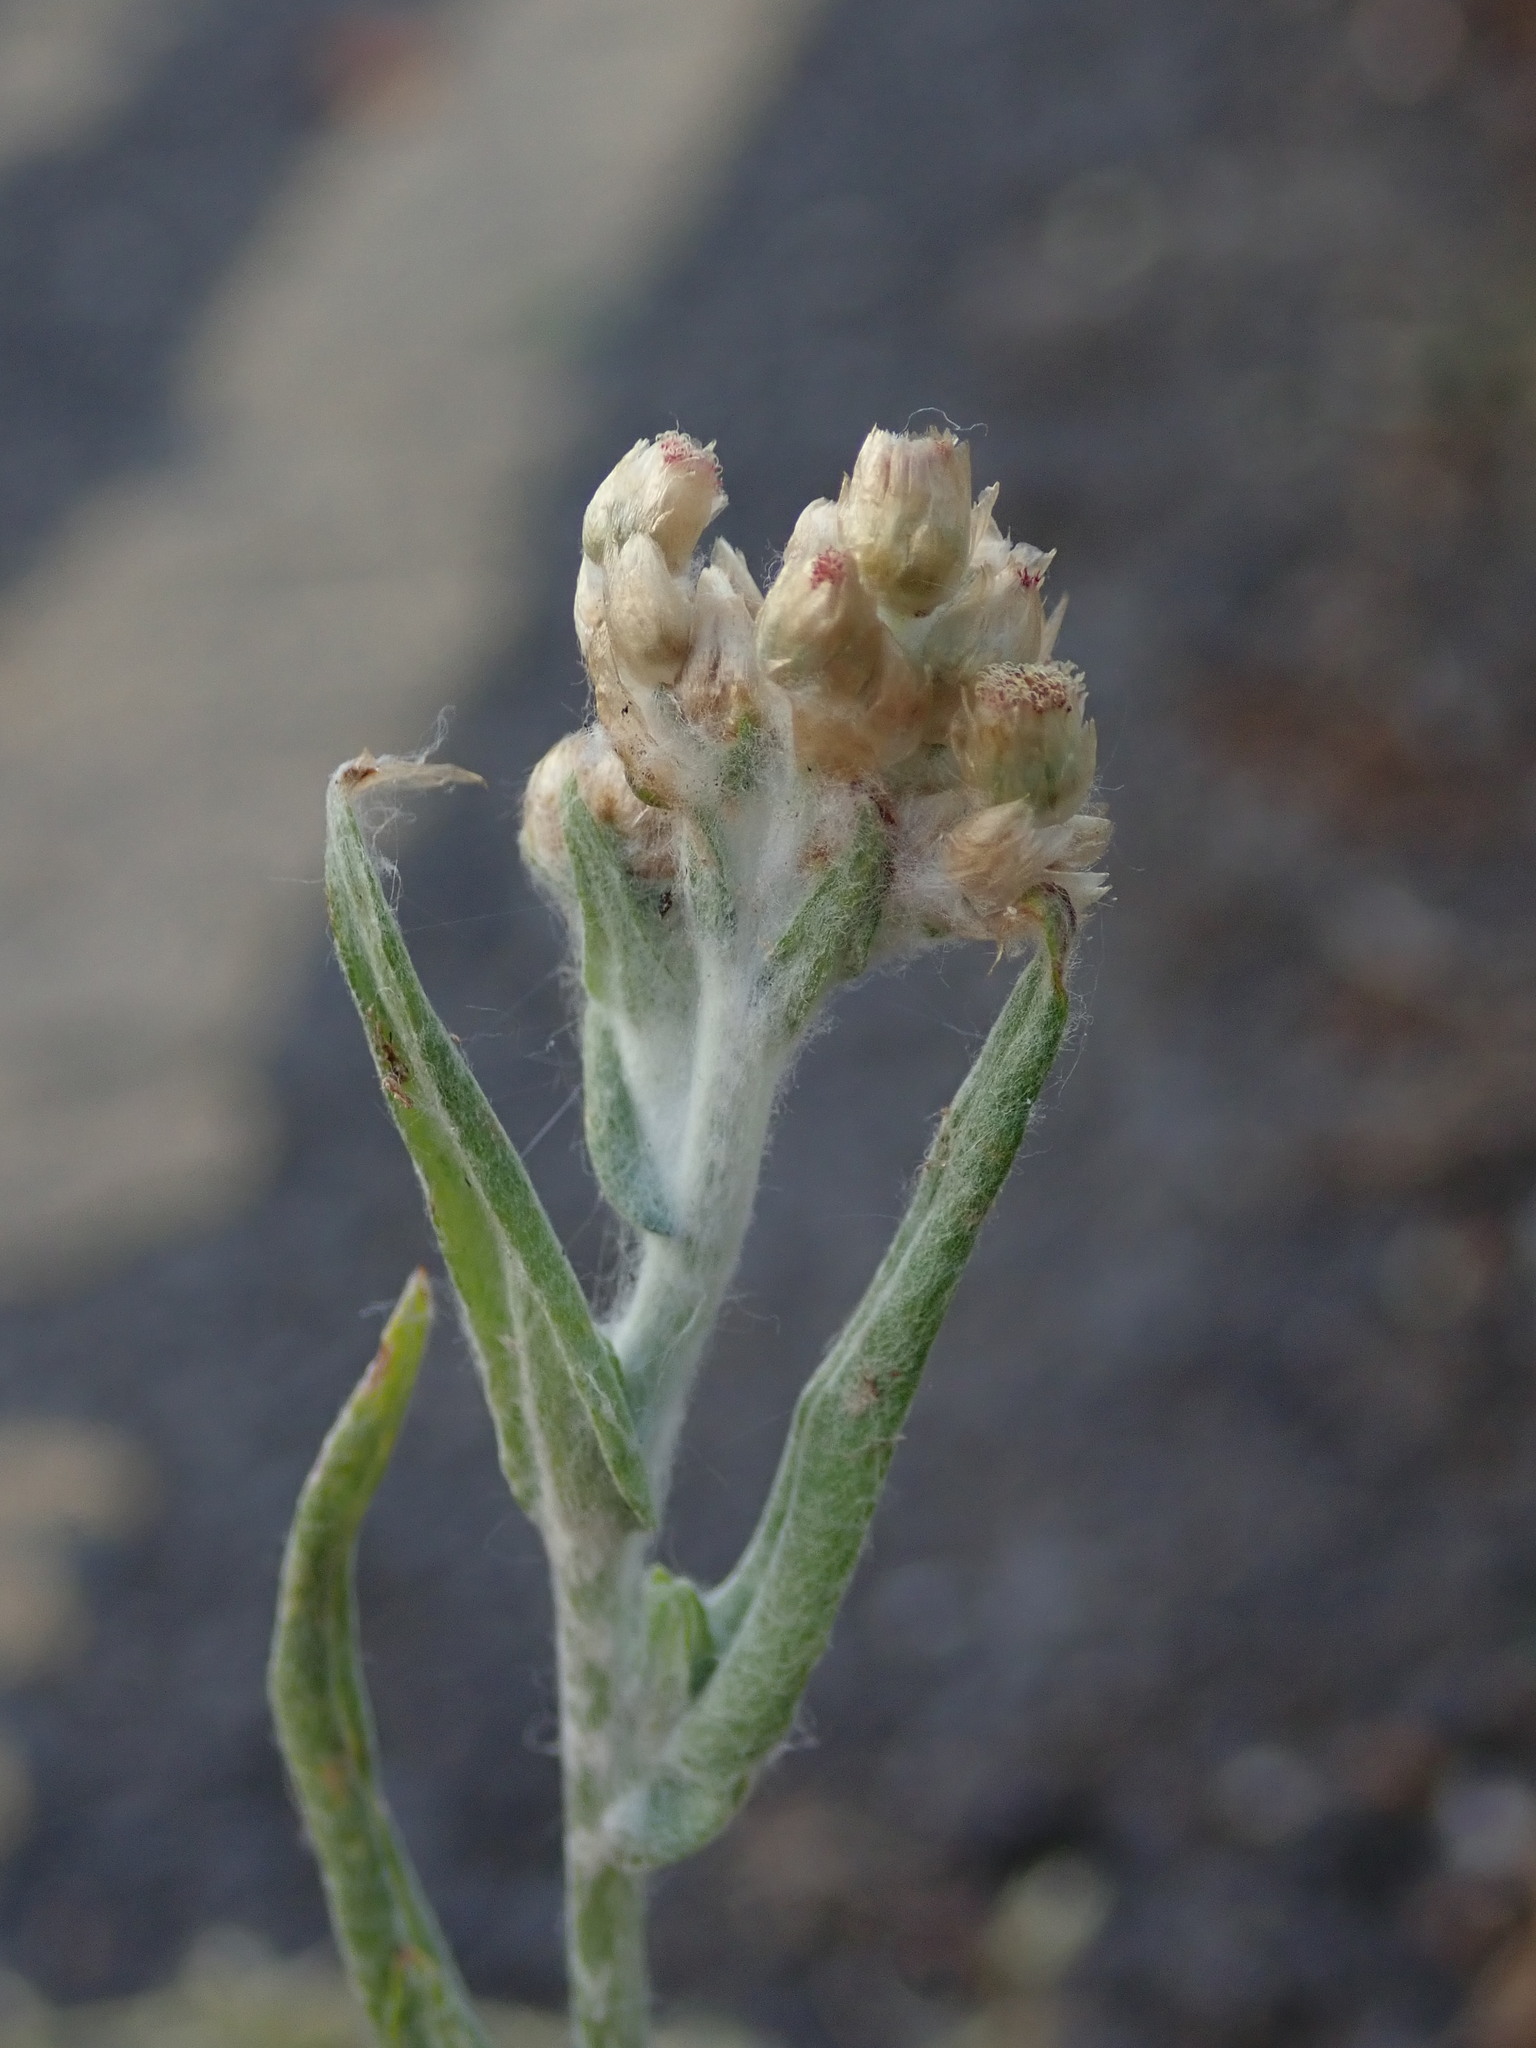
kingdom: Plantae
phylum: Tracheophyta
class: Magnoliopsida
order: Asterales
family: Asteraceae
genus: Helichrysum
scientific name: Helichrysum luteoalbum
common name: Daisy
